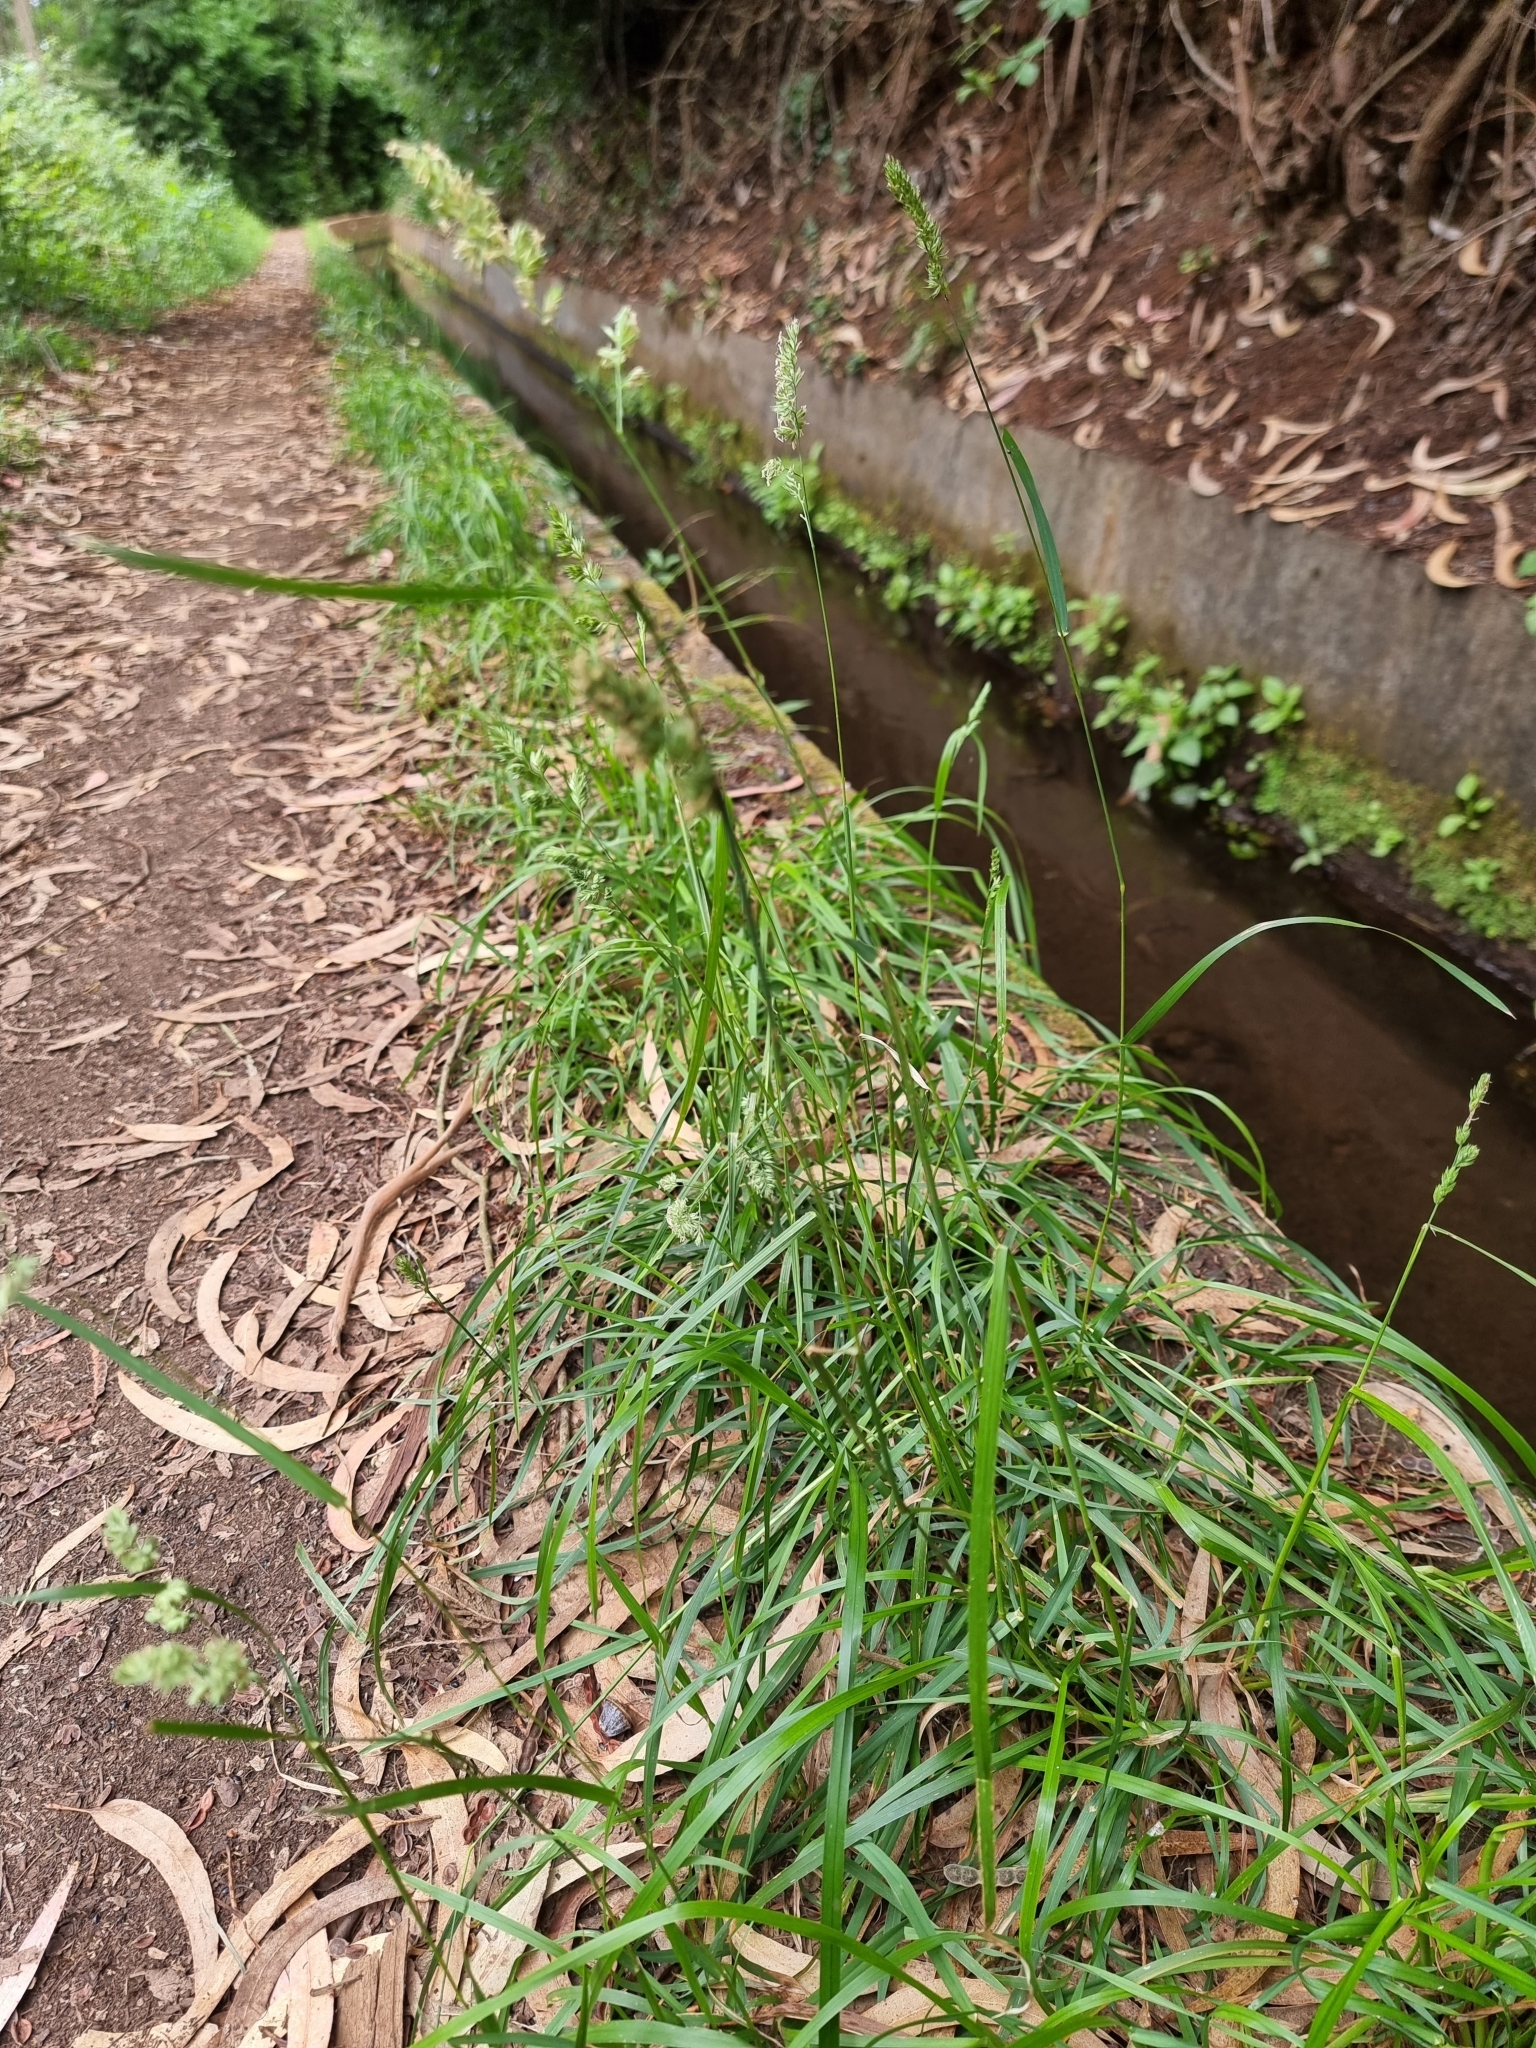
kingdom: Plantae
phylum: Tracheophyta
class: Liliopsida
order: Poales
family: Poaceae
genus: Dactylis
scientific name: Dactylis glomerata
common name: Orchardgrass
